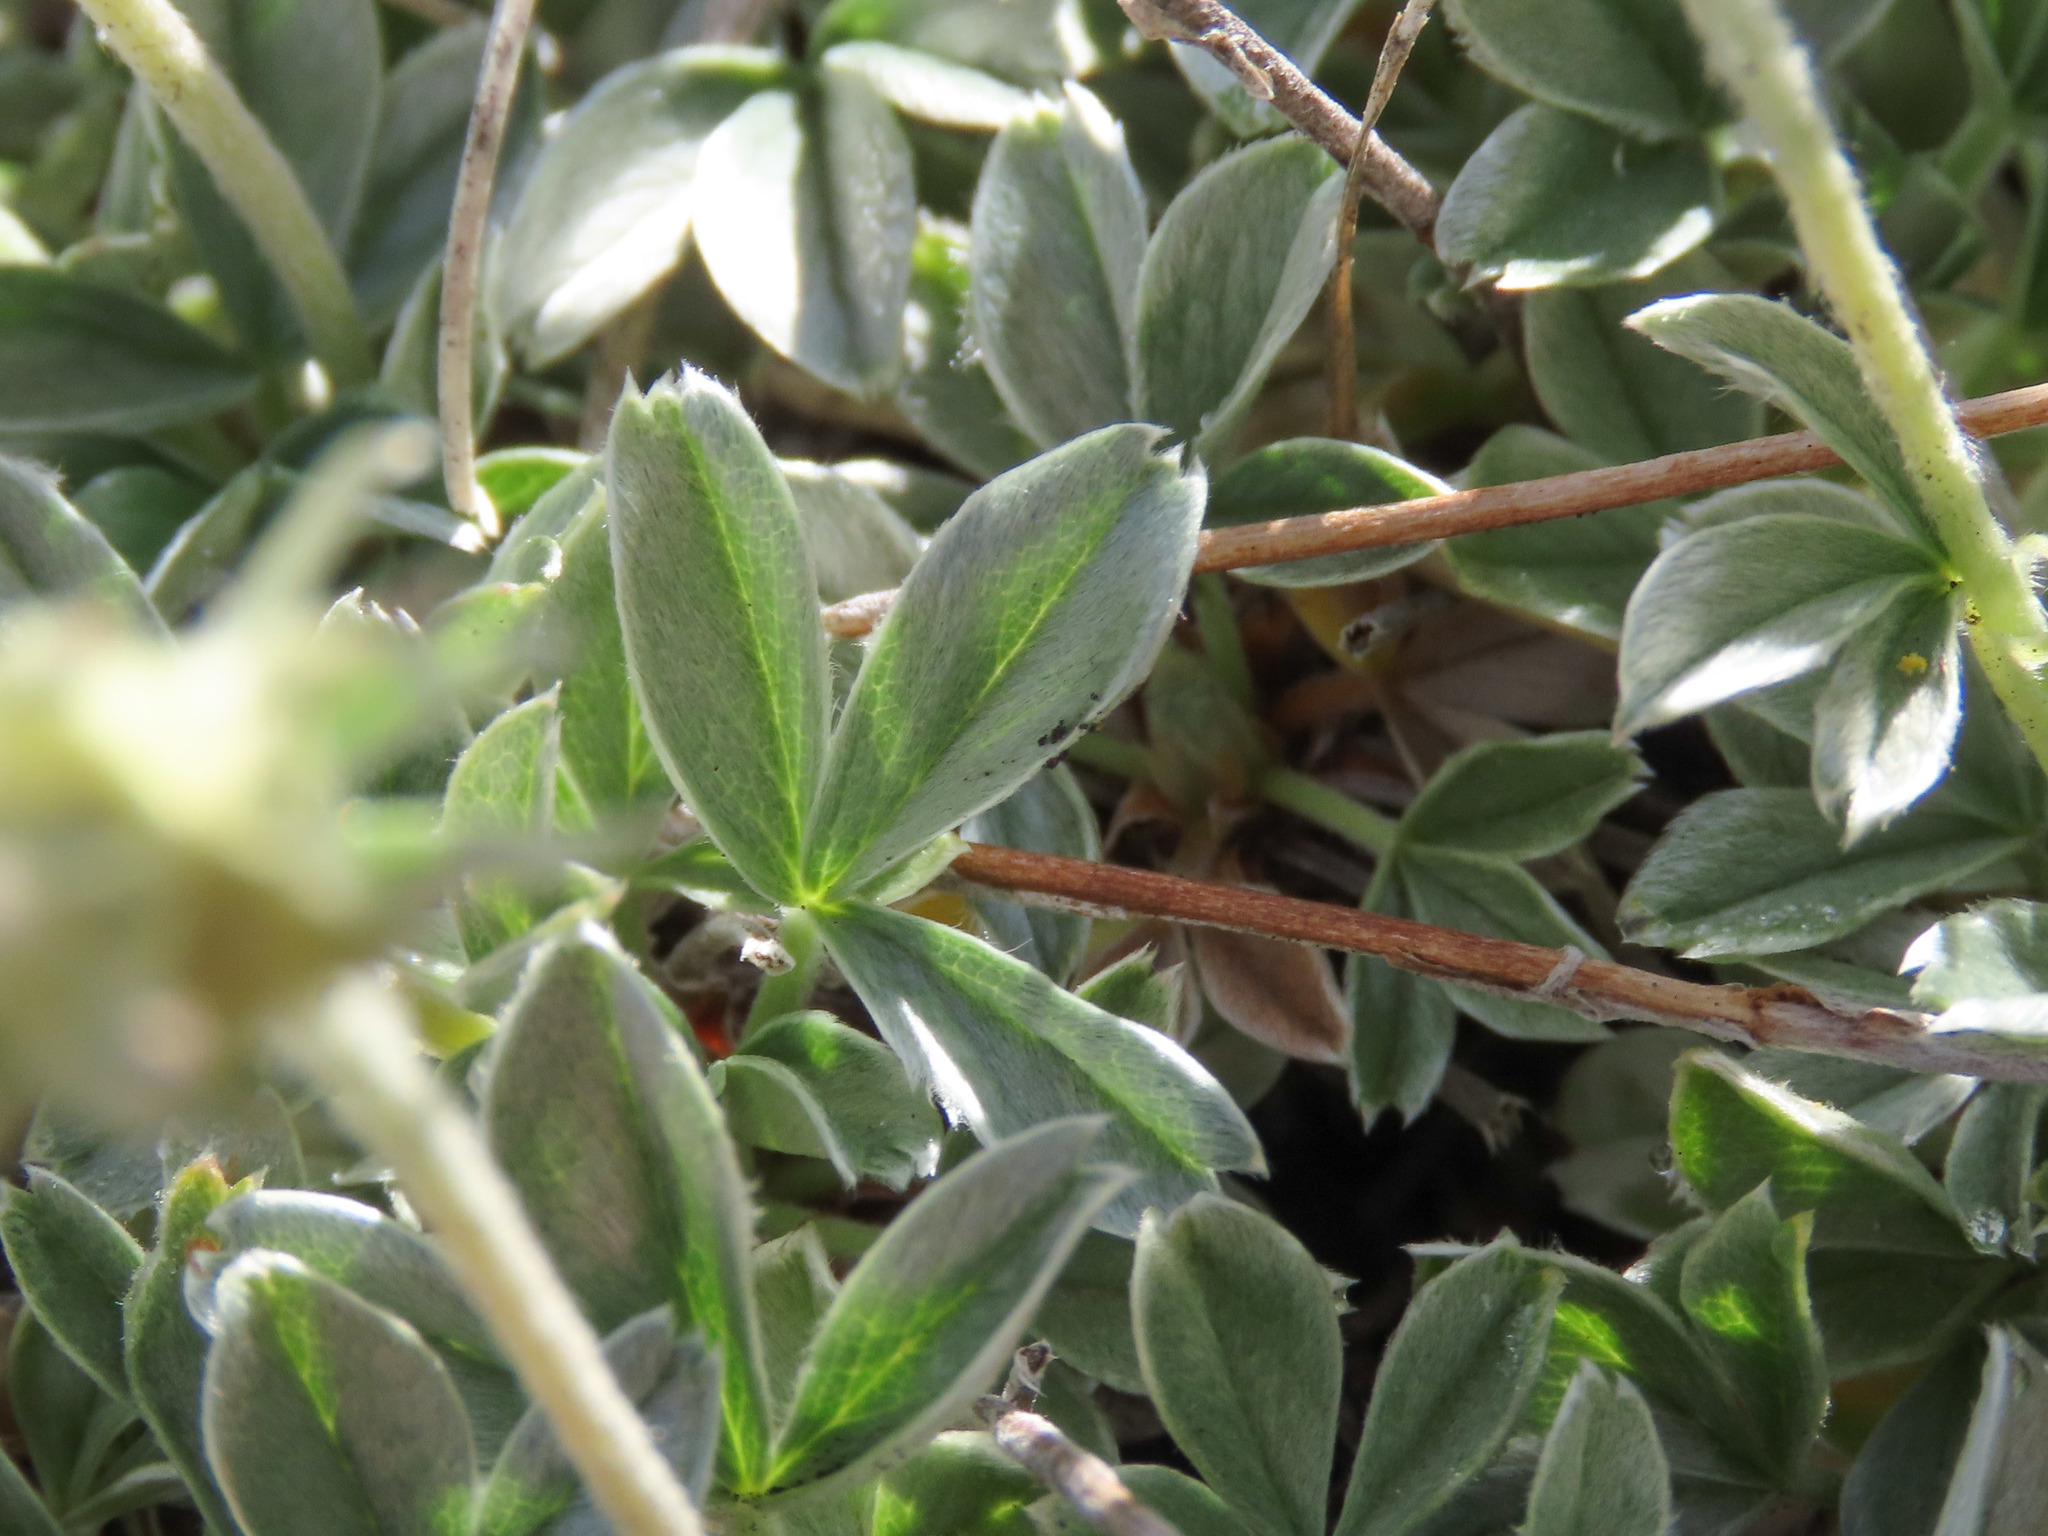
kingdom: Plantae
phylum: Tracheophyta
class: Magnoliopsida
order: Rosales
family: Rosaceae
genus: Potentilla
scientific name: Potentilla apennina
